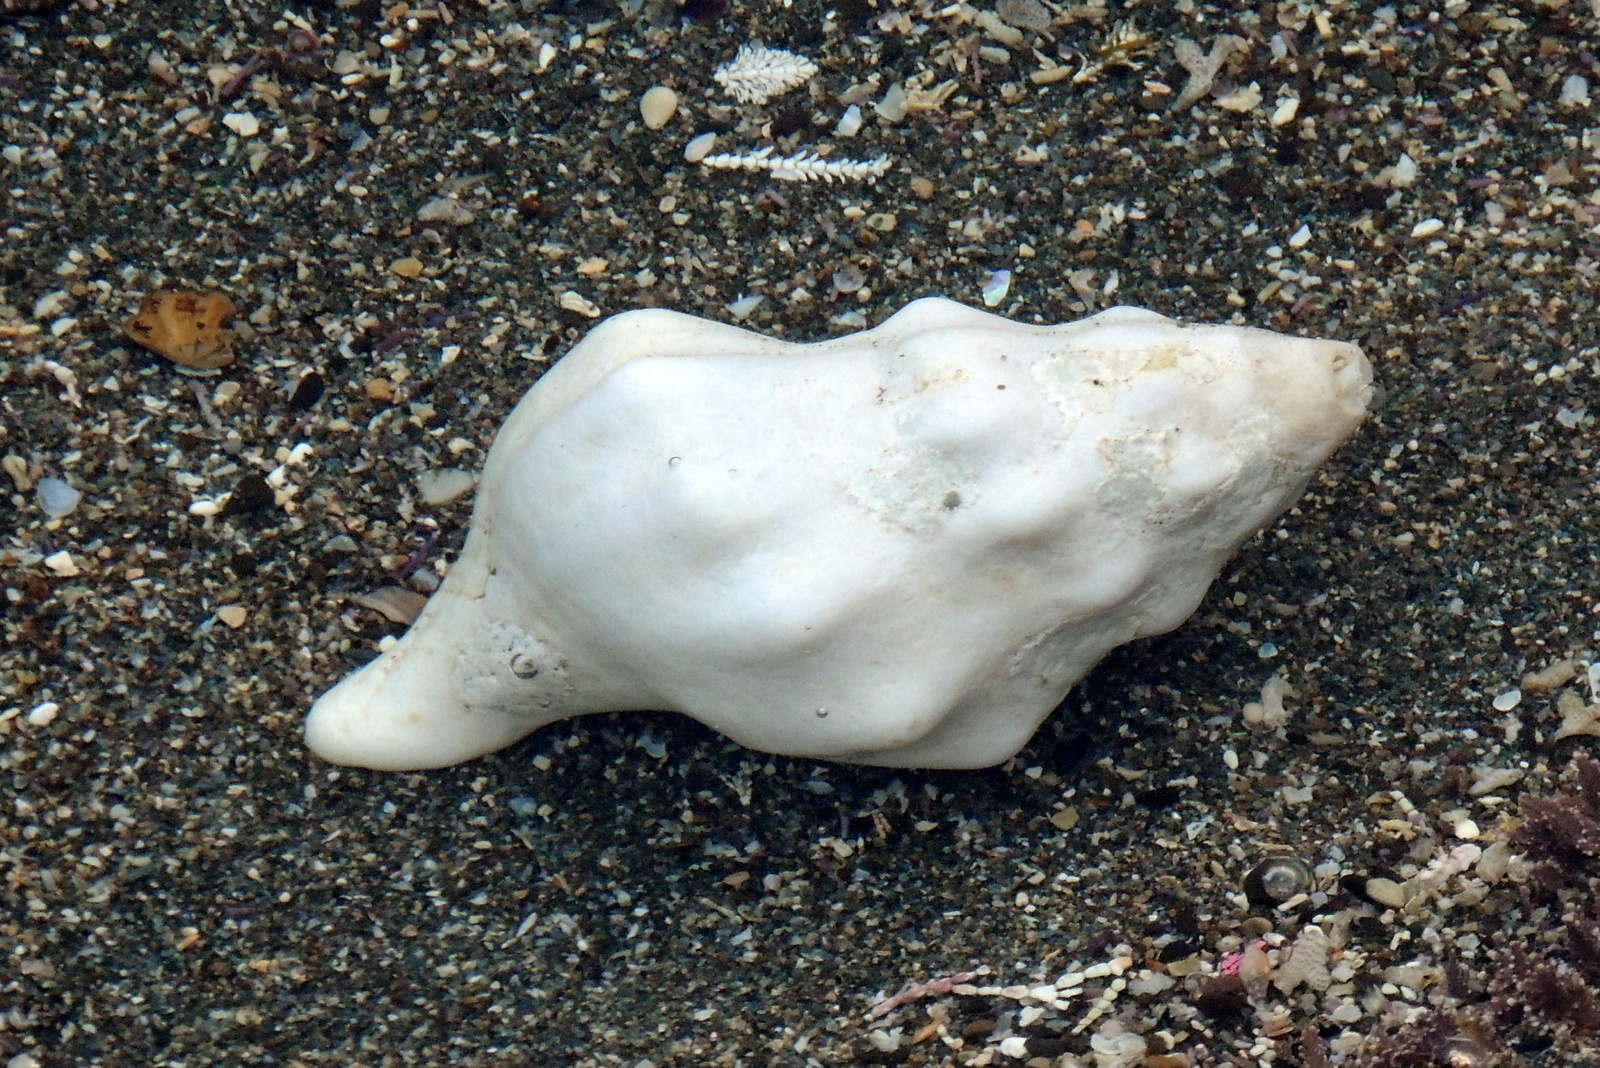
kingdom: Animalia
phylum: Mollusca
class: Gastropoda
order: Neogastropoda
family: Austrosiphonidae
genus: Kelletia
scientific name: Kelletia kelletii
